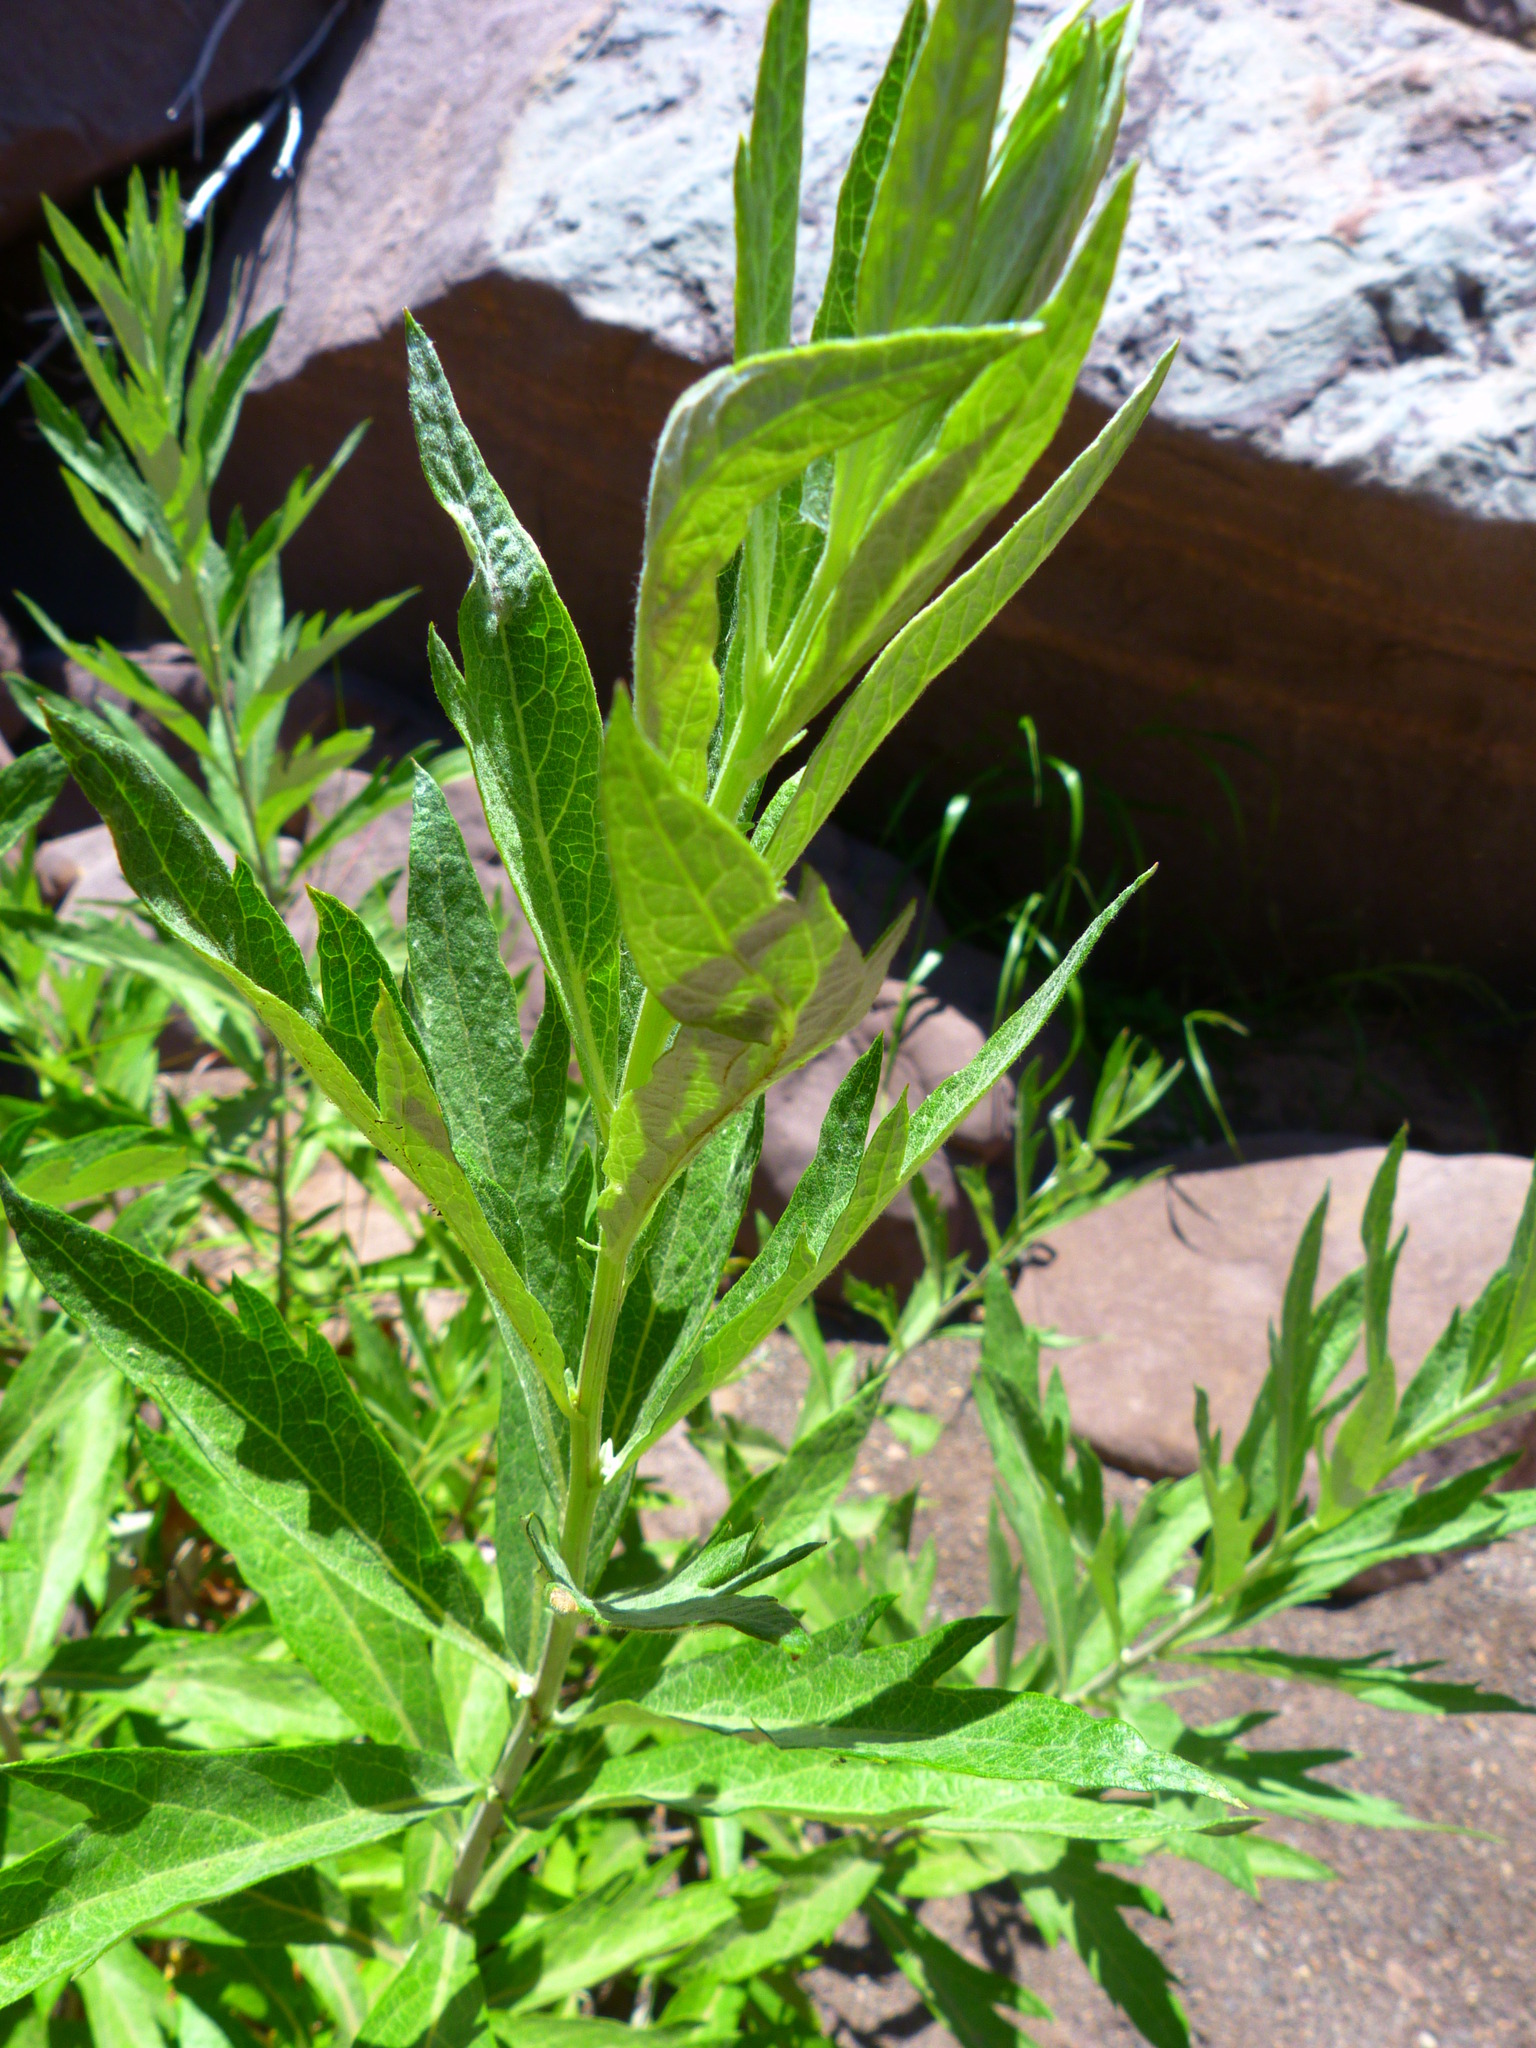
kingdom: Plantae
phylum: Tracheophyta
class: Magnoliopsida
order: Asterales
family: Asteraceae
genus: Artemisia
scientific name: Artemisia douglasiana
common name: Northwest mugwort
